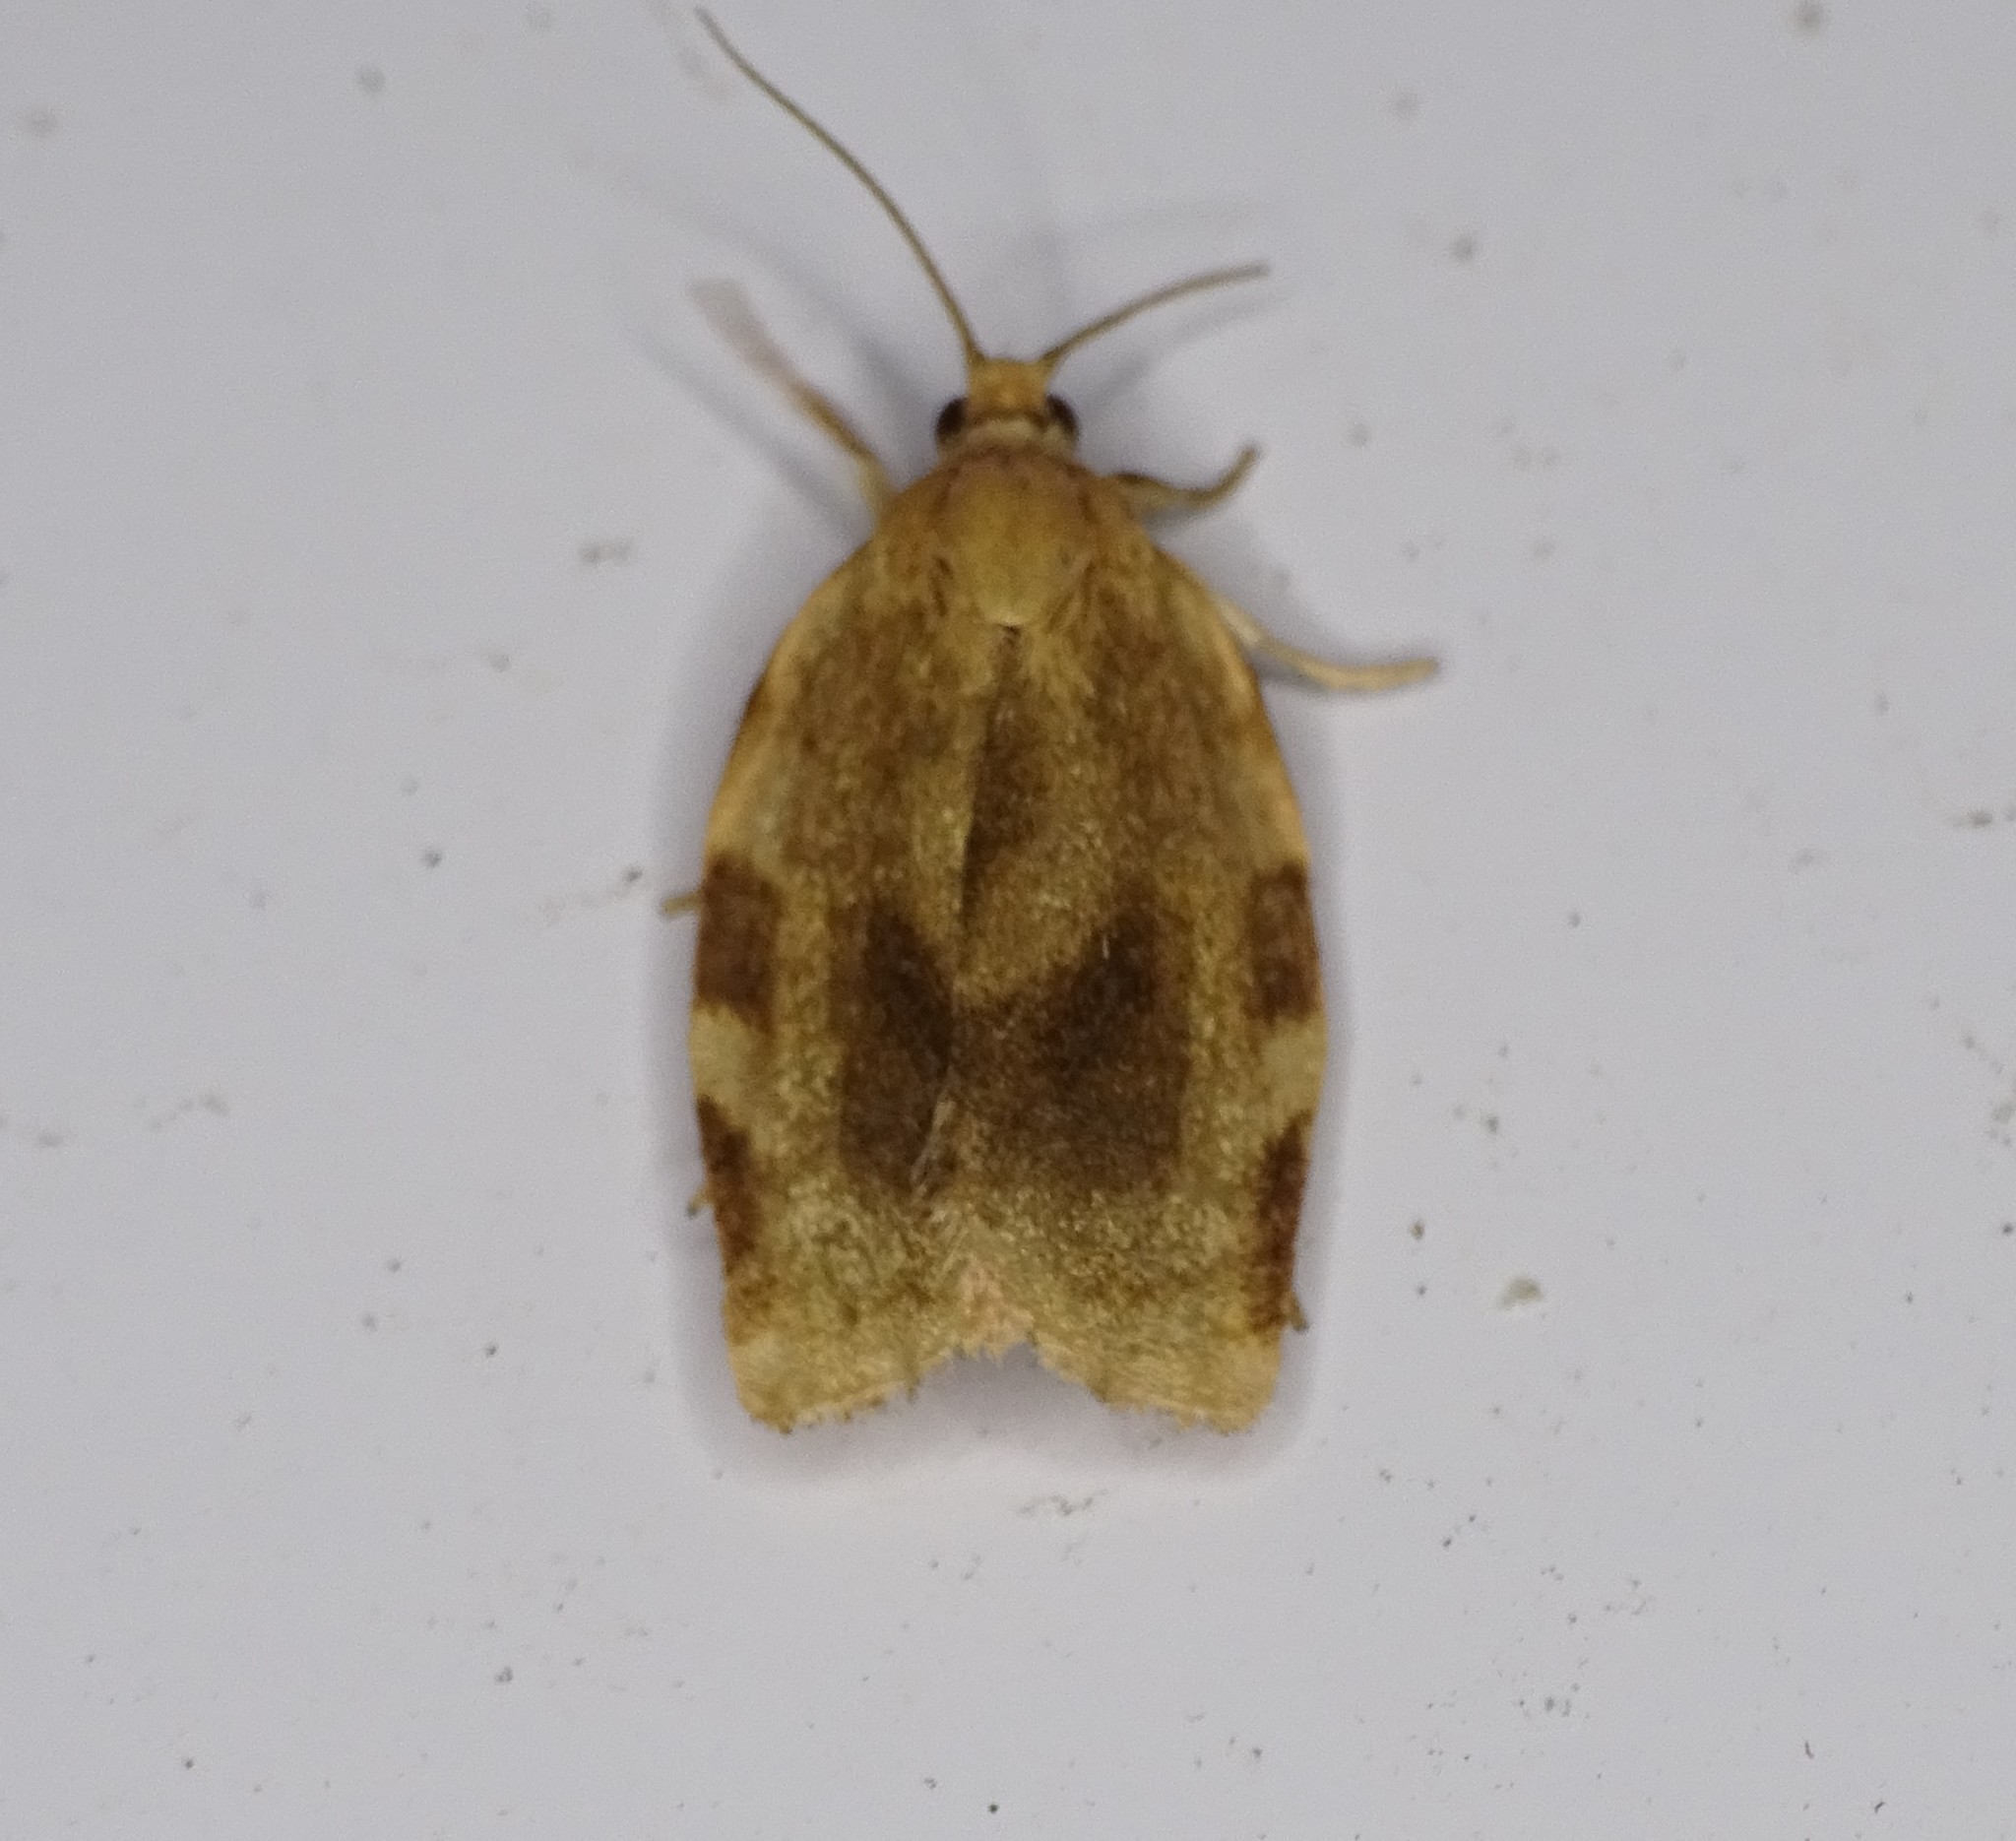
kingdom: Animalia
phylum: Arthropoda
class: Insecta
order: Lepidoptera
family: Tortricidae
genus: Choristoneura
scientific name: Choristoneura fractivittana
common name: Broken-banded leafroller moth
